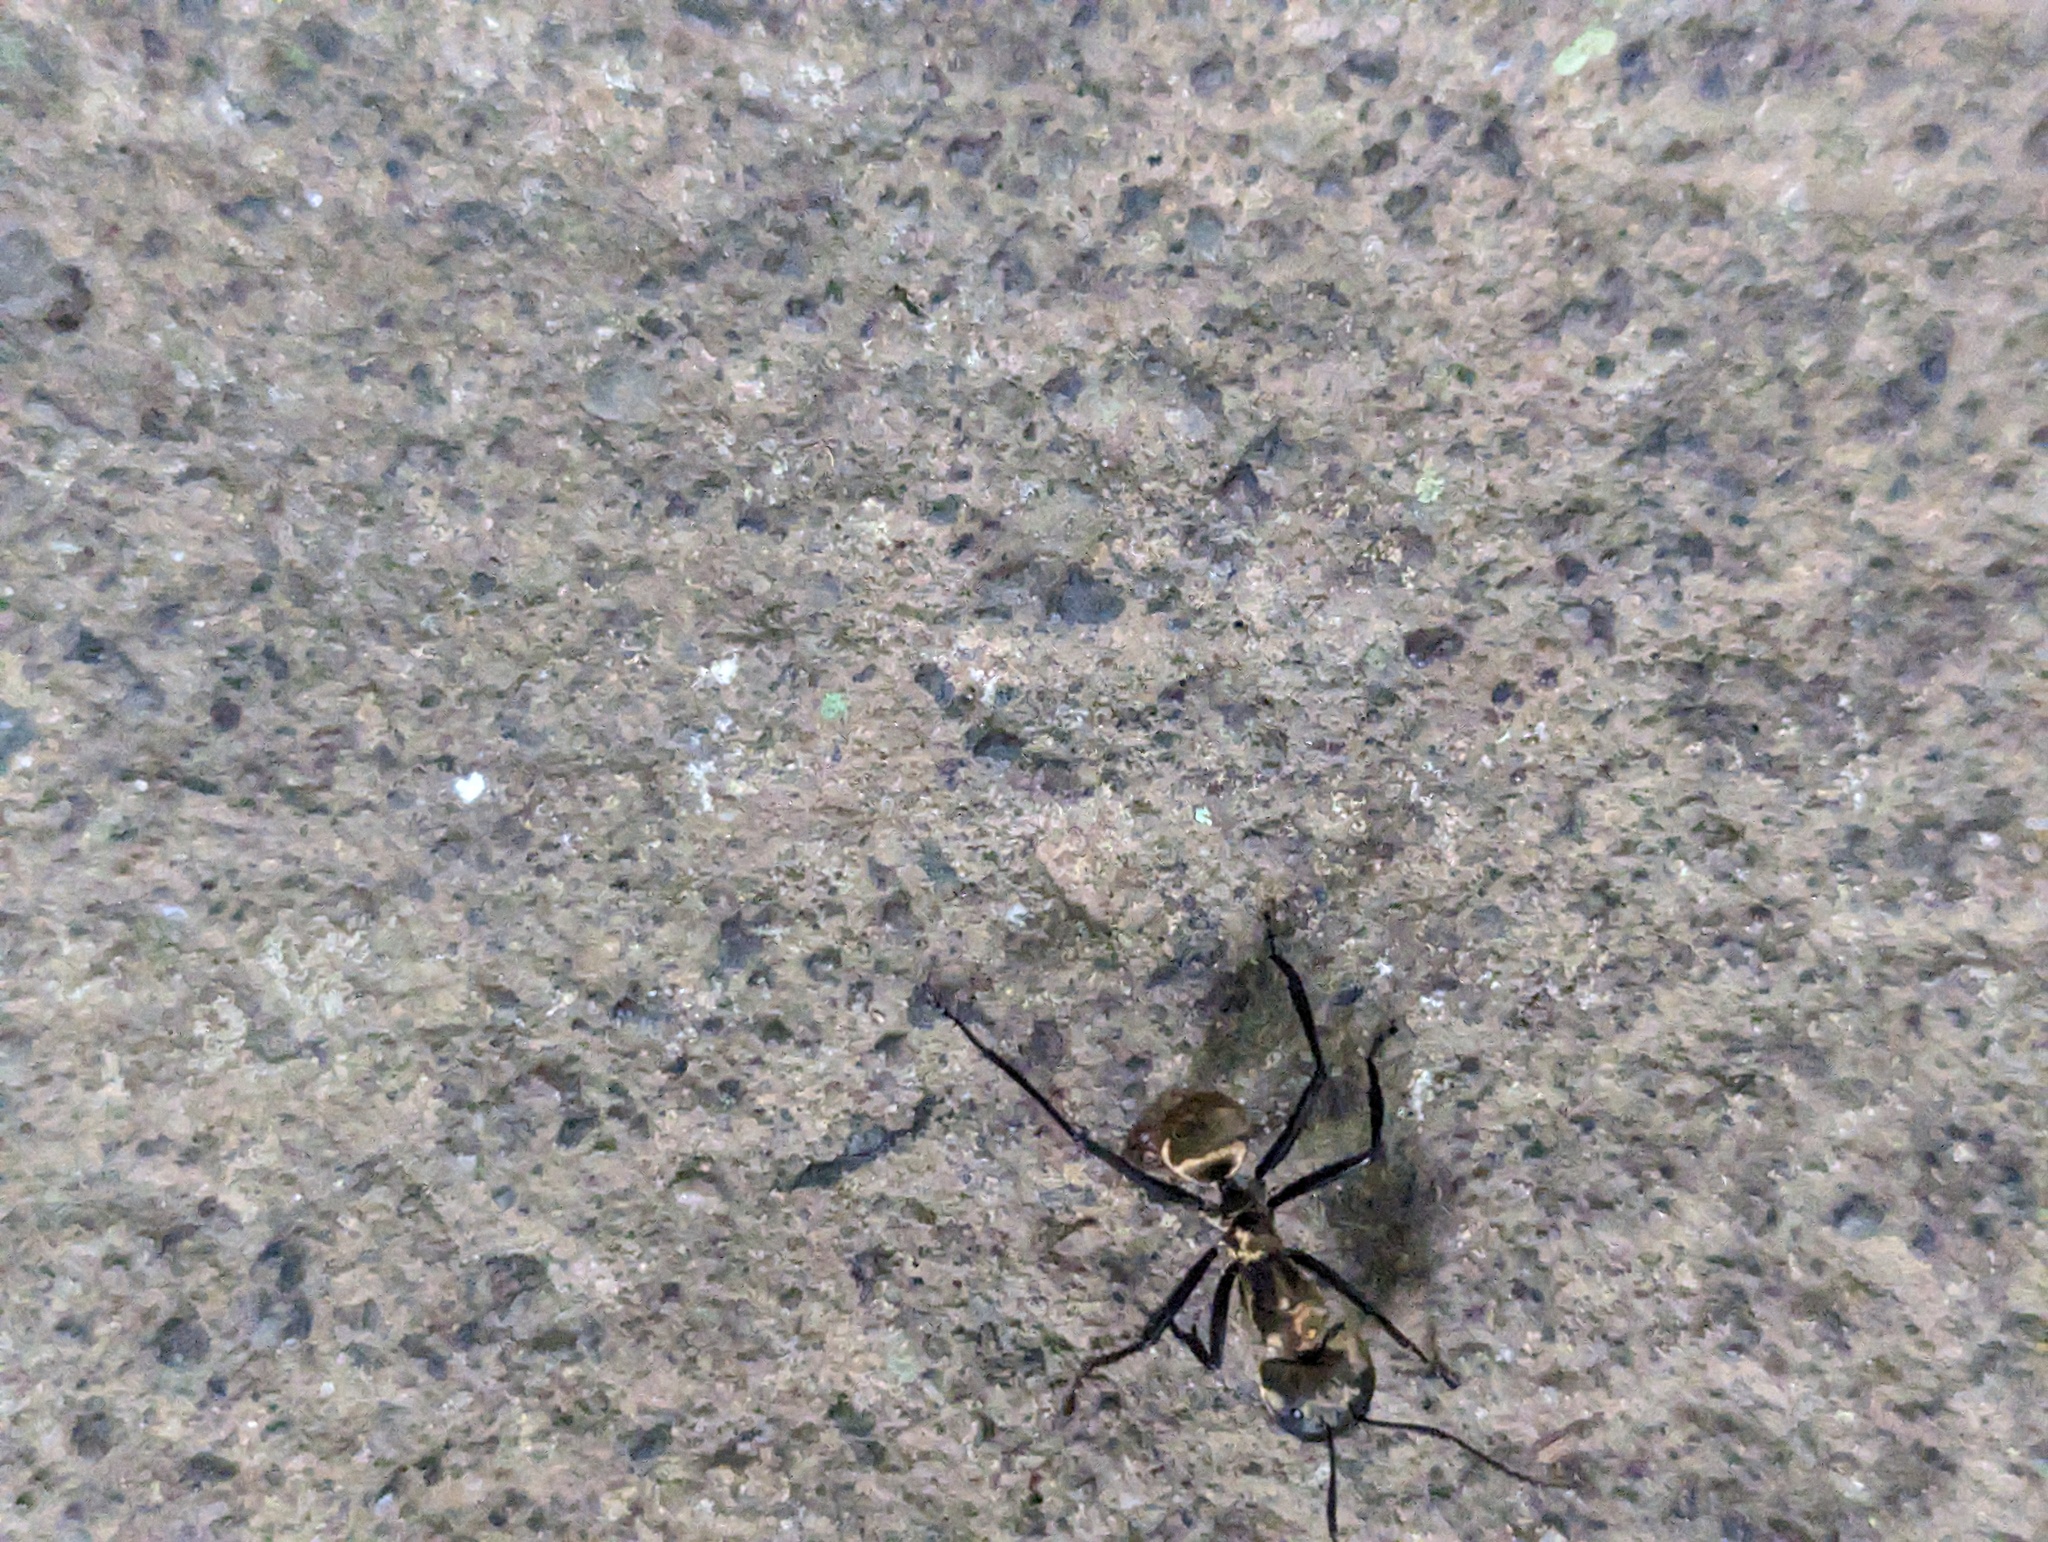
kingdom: Animalia
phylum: Arthropoda
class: Insecta
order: Hymenoptera
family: Formicidae
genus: Camponotus
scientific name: Camponotus sericeiventris
